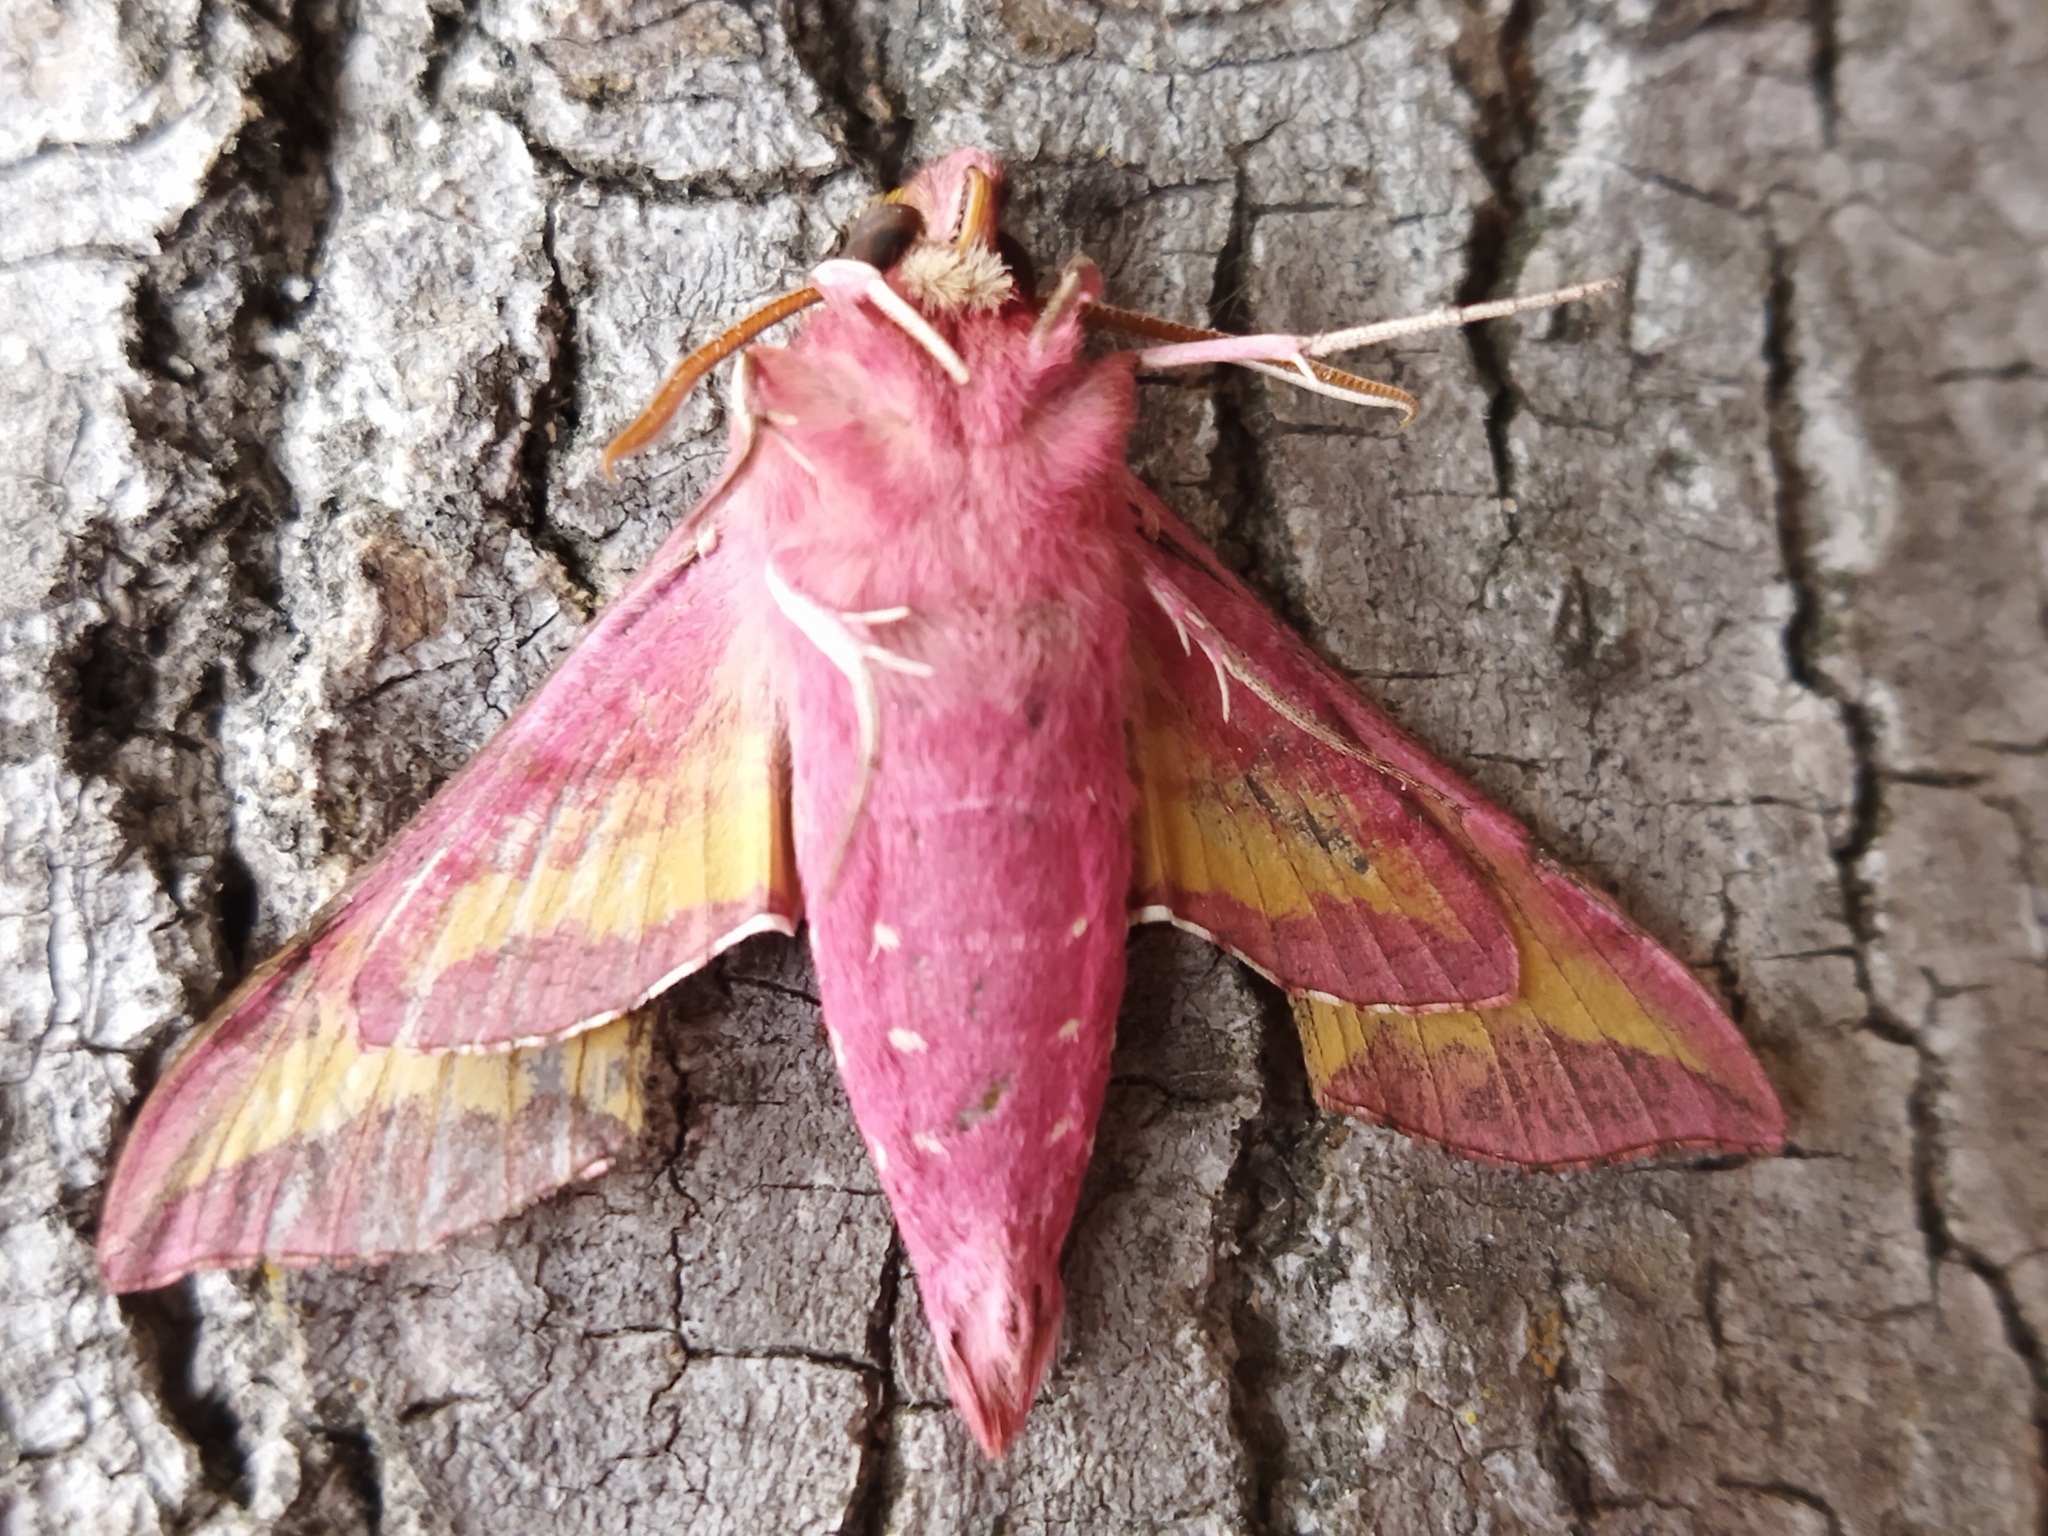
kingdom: Animalia
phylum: Arthropoda
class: Insecta
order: Lepidoptera
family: Sphingidae
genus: Deilephila
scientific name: Deilephila porcellus
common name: Small elephant hawk-moth
